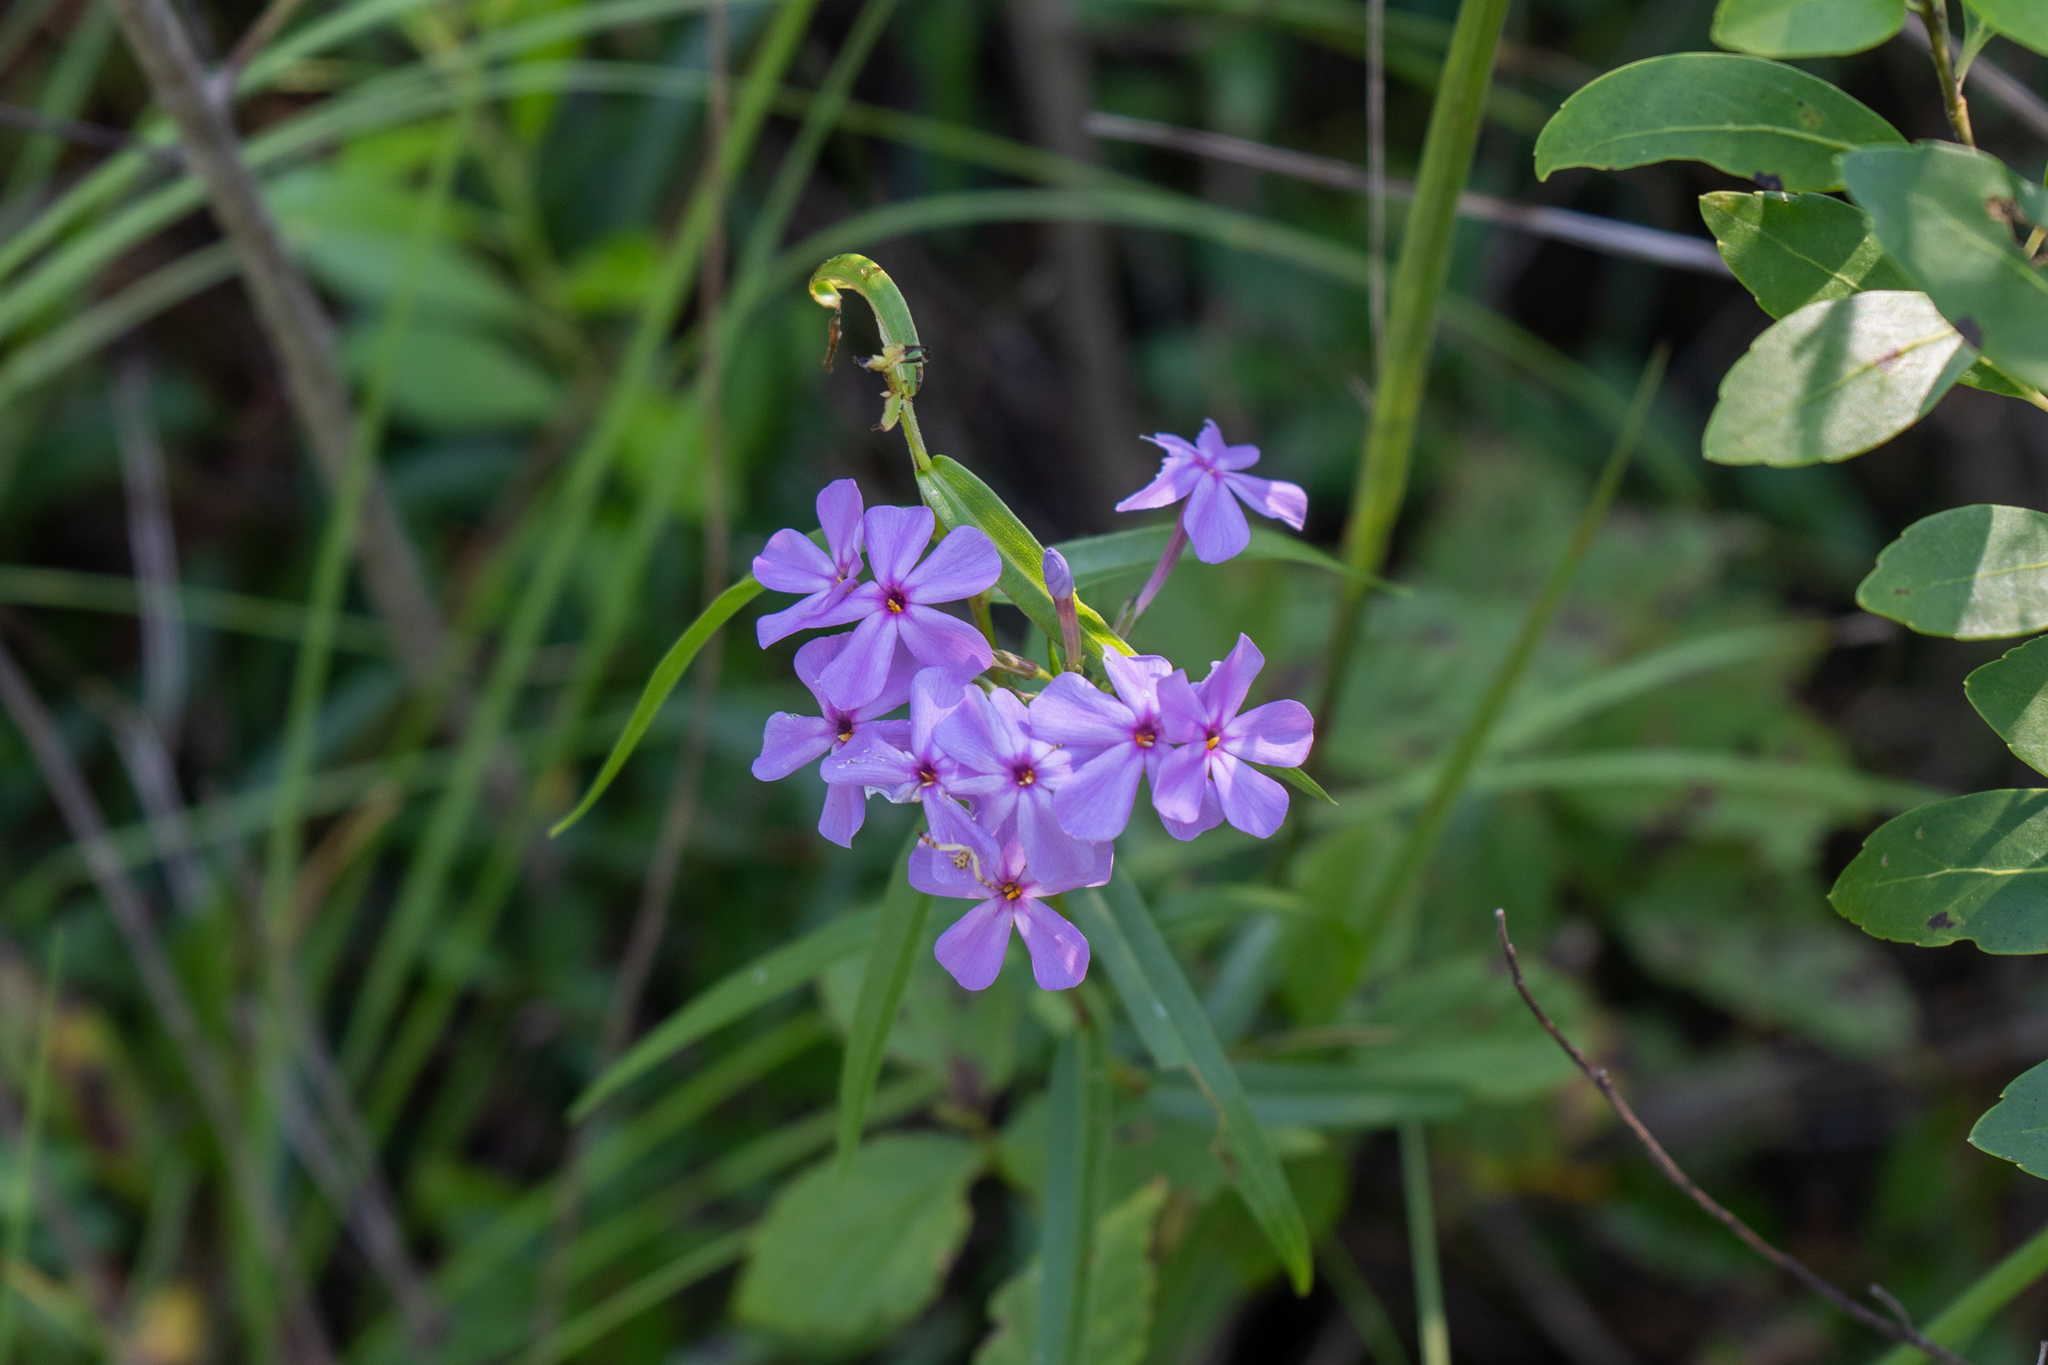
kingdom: Plantae
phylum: Tracheophyta
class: Magnoliopsida
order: Ericales
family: Polemoniaceae
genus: Phlox
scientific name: Phlox carolina
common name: Thick-leaf phlox
